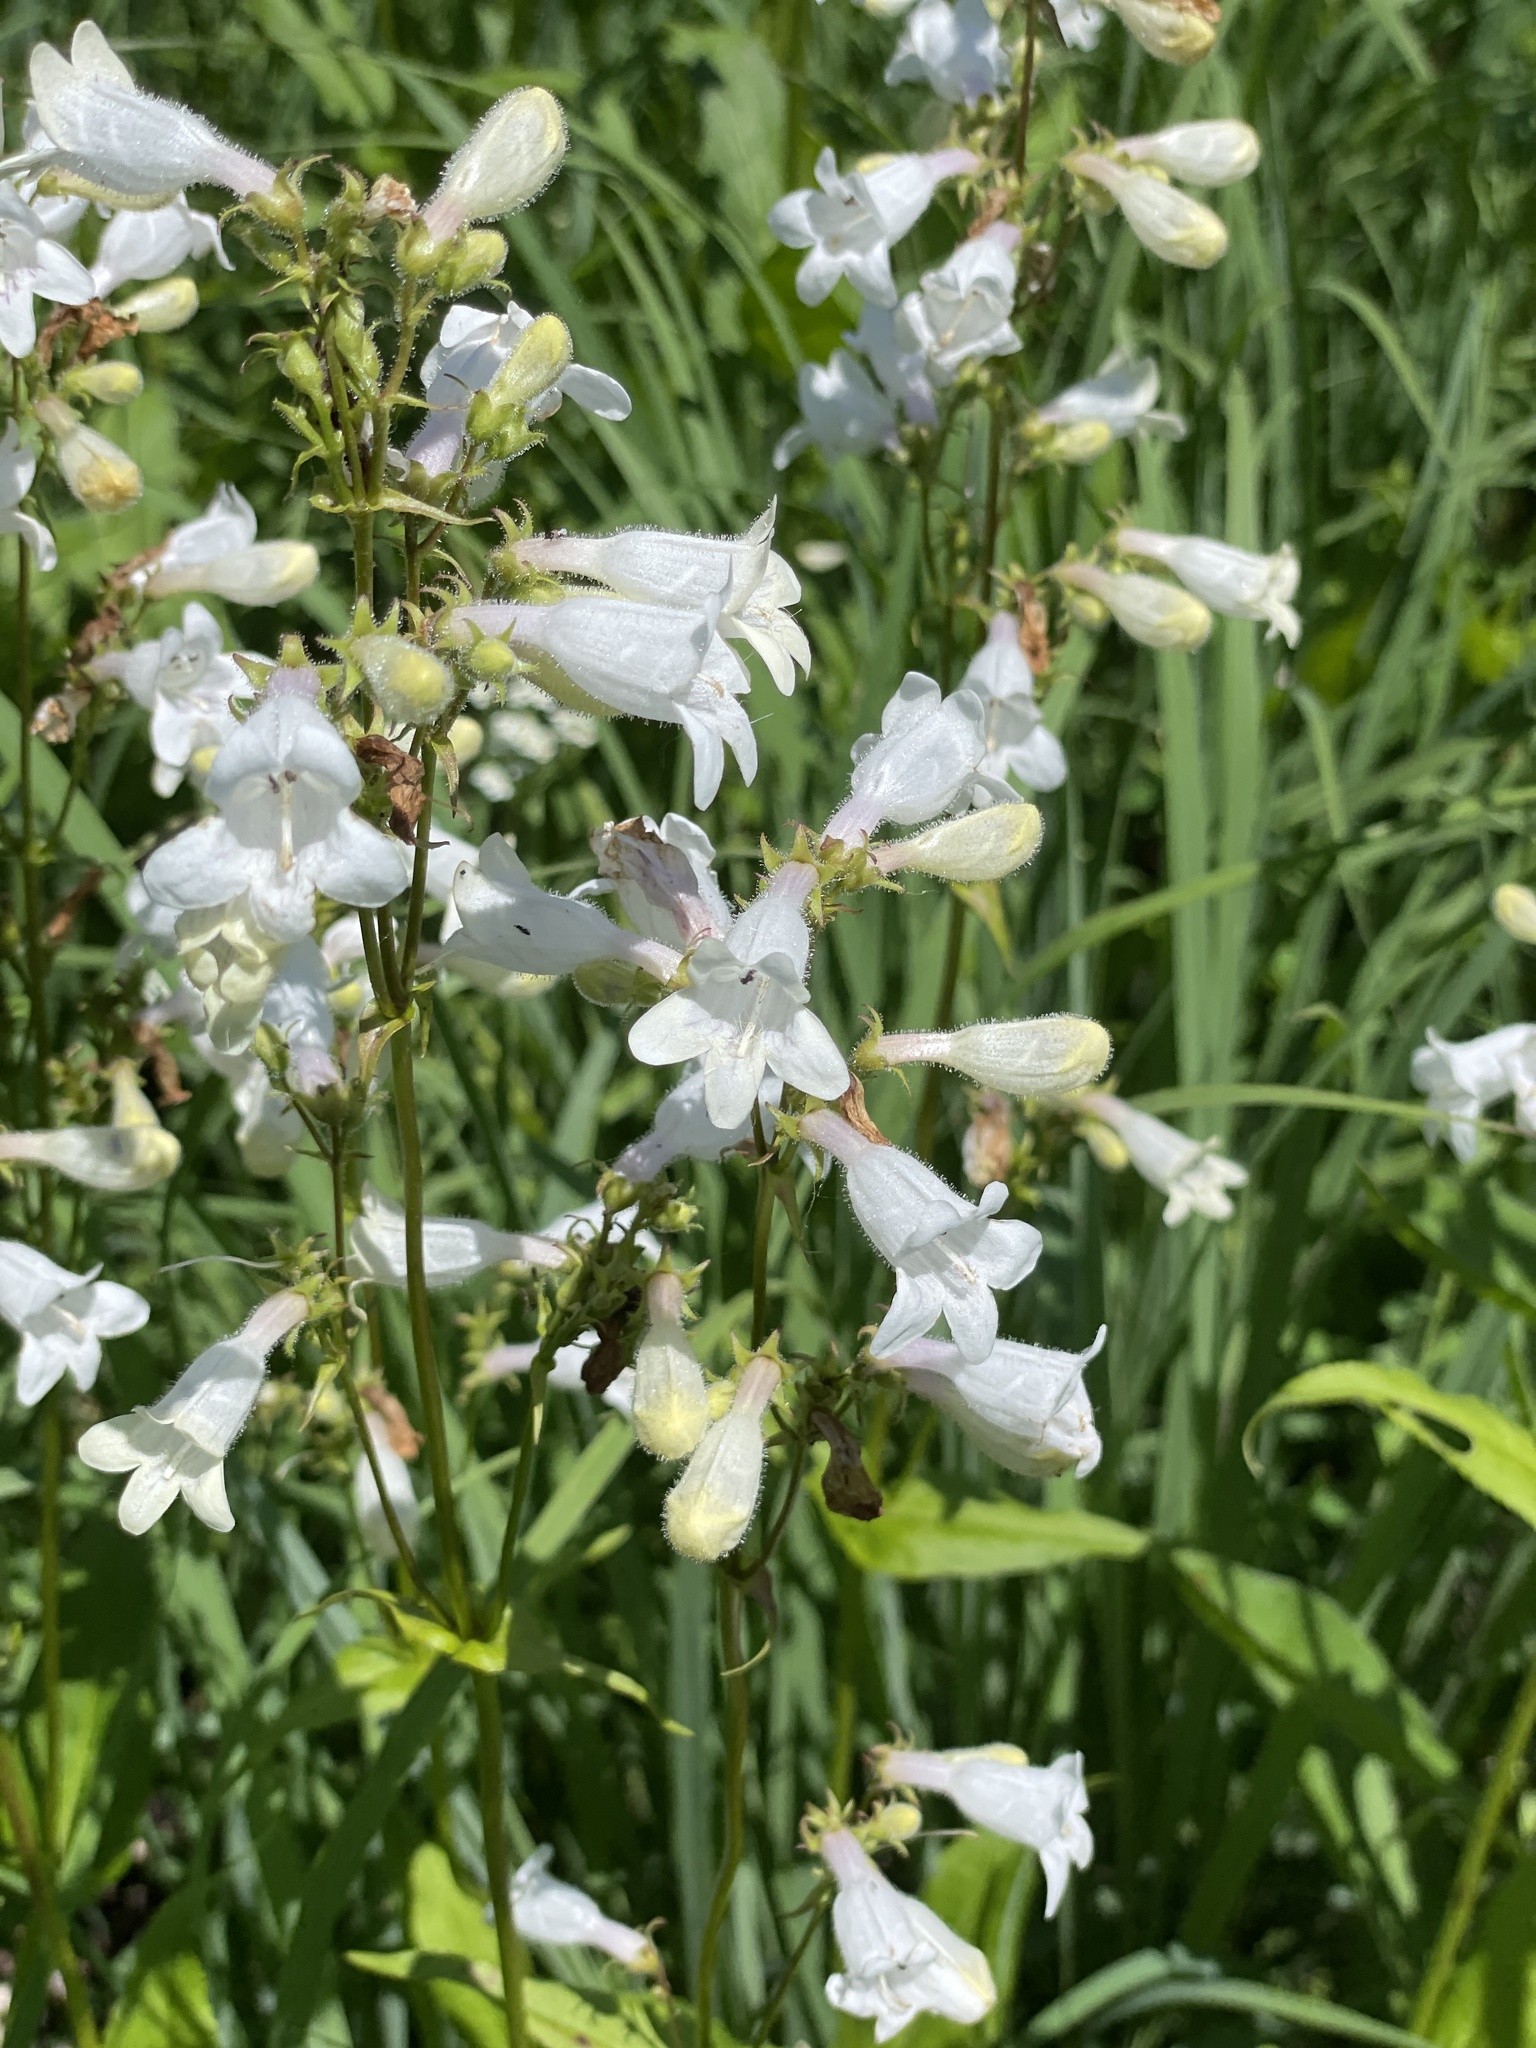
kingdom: Plantae
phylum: Tracheophyta
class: Magnoliopsida
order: Lamiales
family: Plantaginaceae
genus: Penstemon
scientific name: Penstemon digitalis
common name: Foxglove beardtongue
